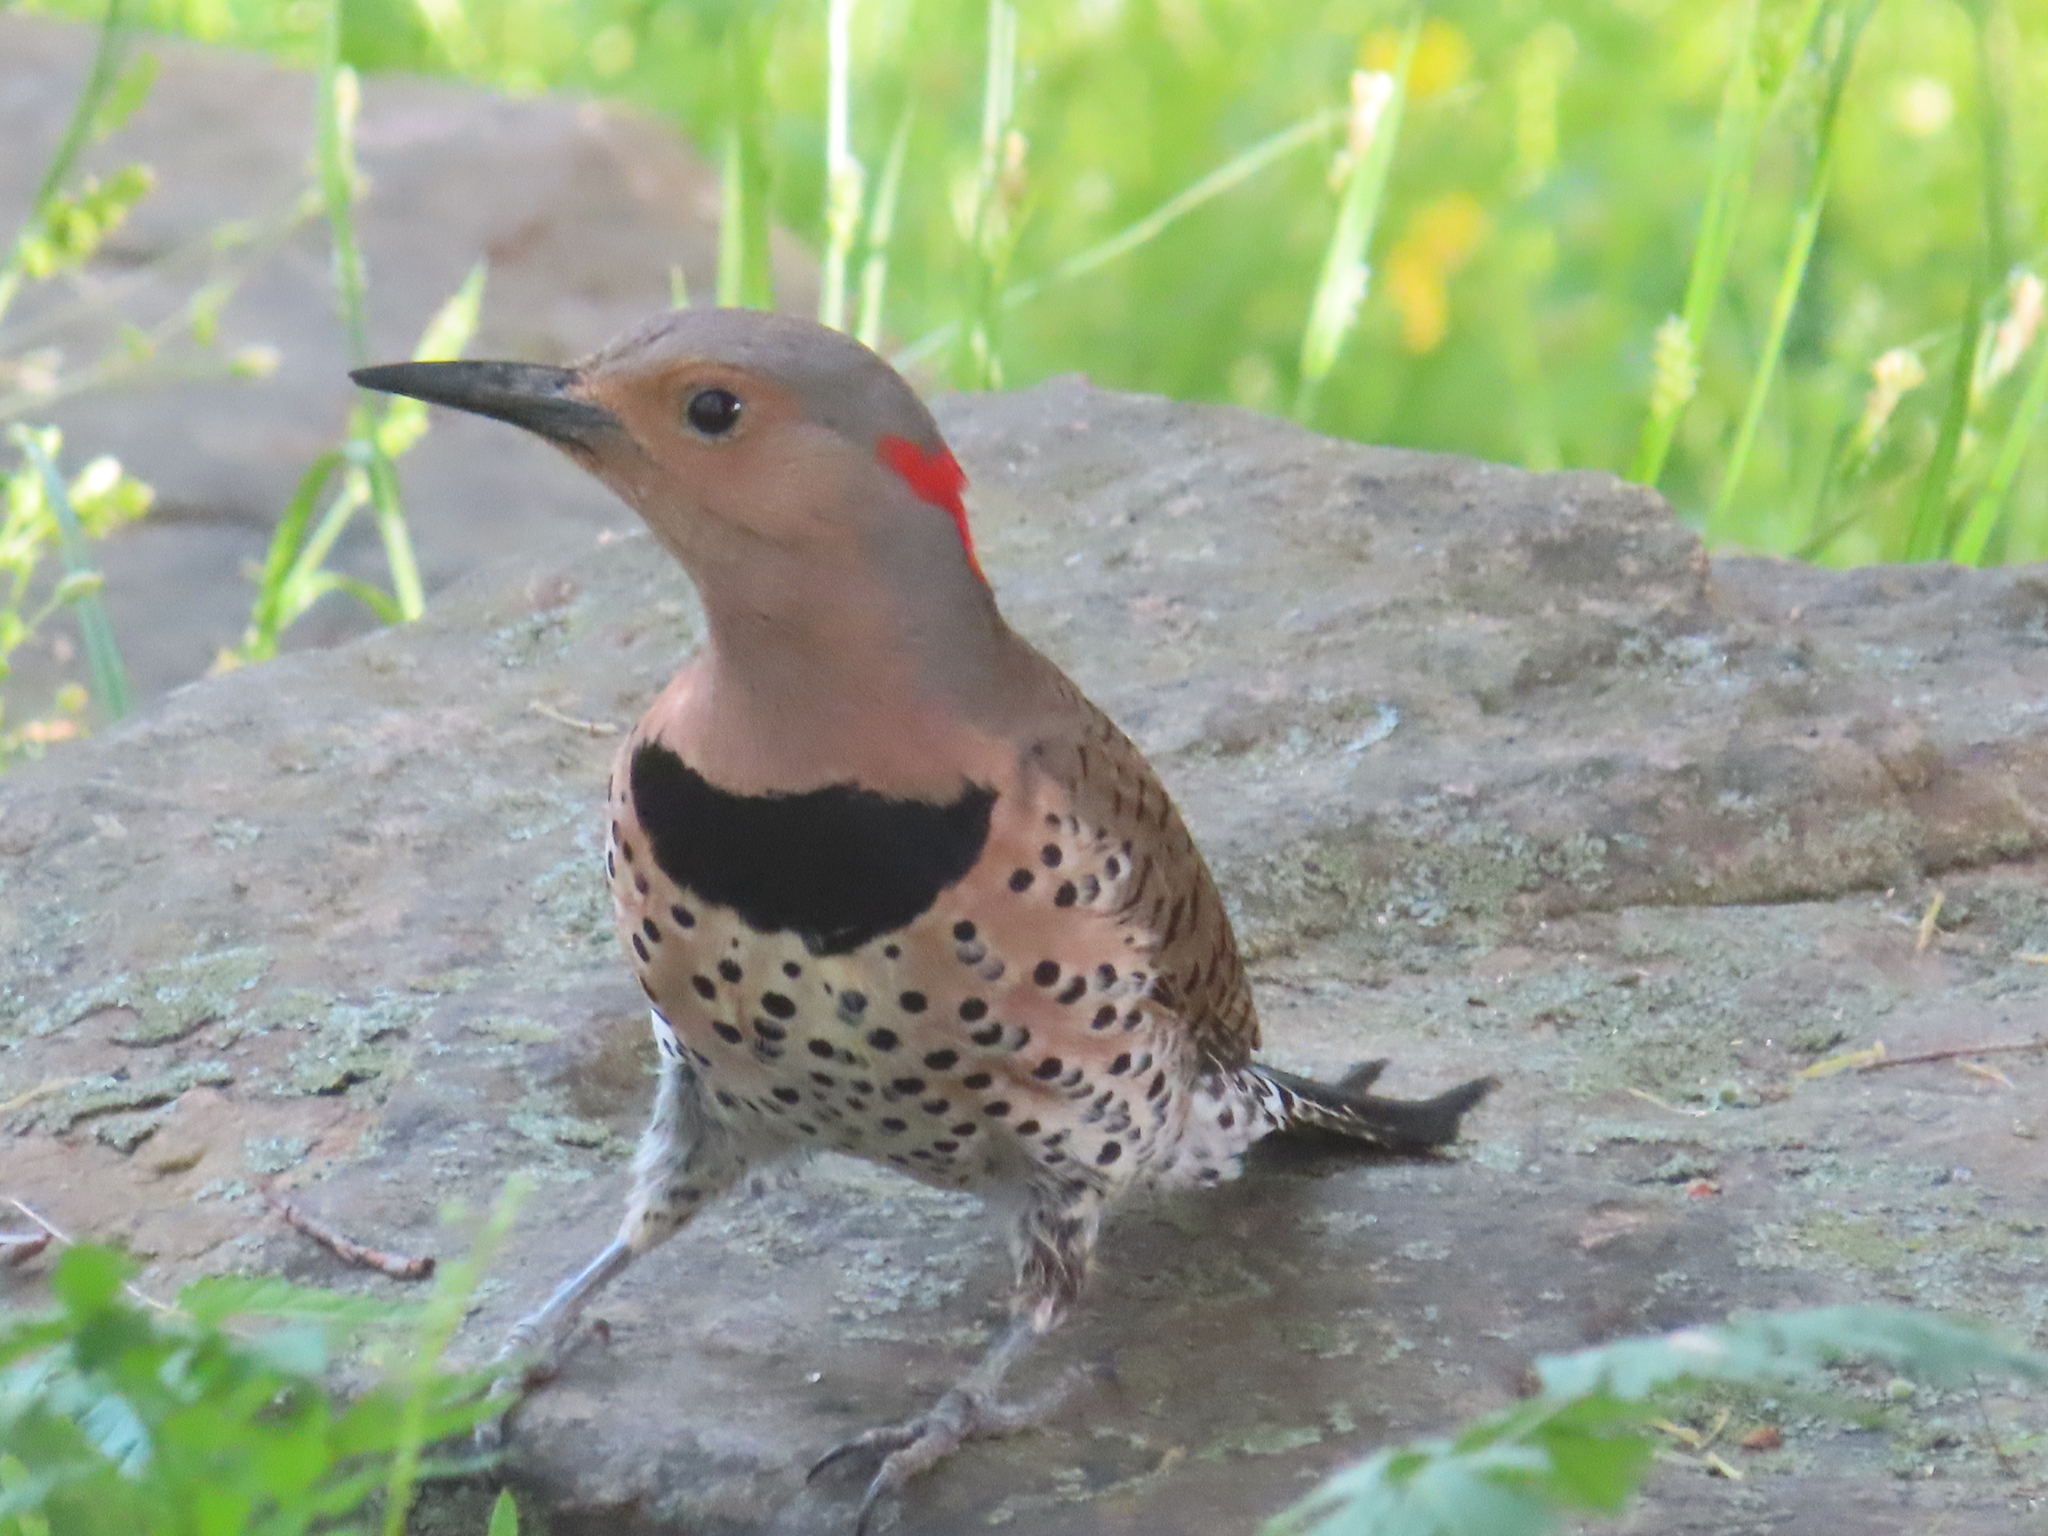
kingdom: Animalia
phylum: Chordata
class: Aves
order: Piciformes
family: Picidae
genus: Colaptes
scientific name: Colaptes auratus
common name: Northern flicker
